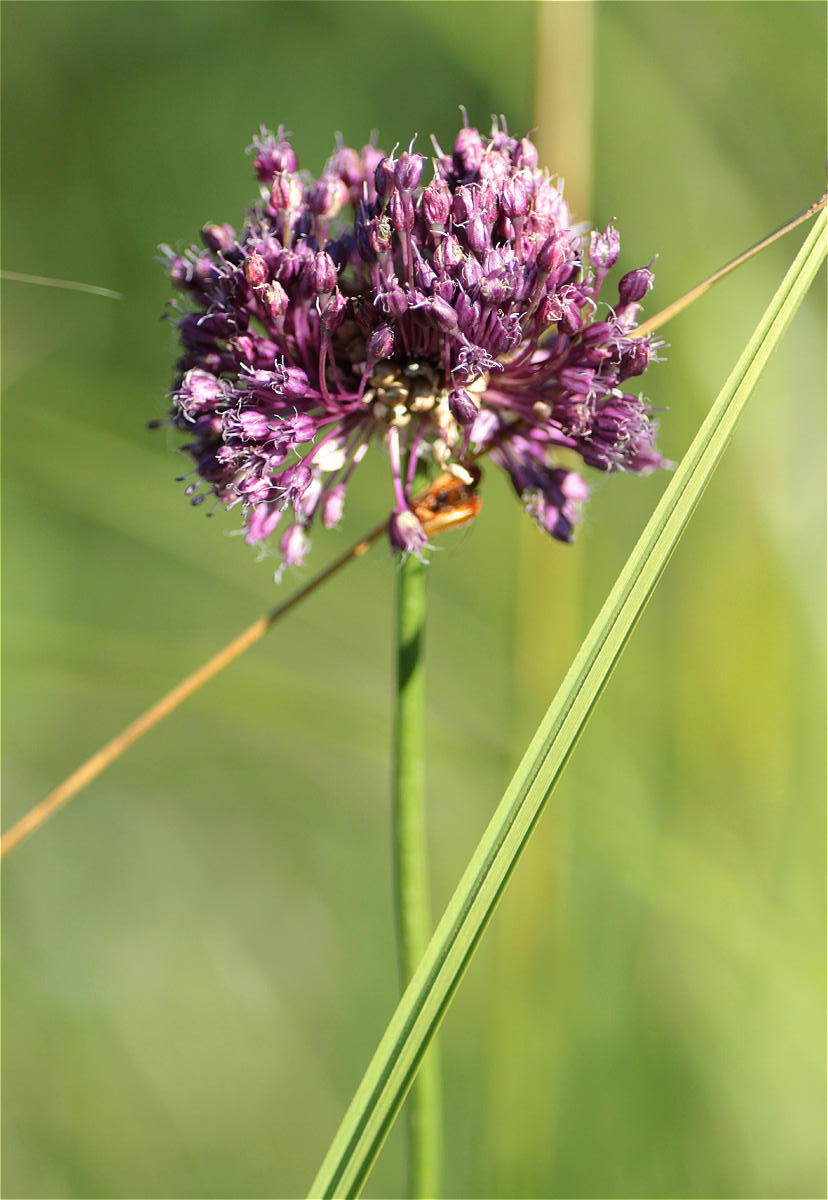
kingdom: Plantae
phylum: Tracheophyta
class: Liliopsida
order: Asparagales
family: Amaryllidaceae
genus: Allium
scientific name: Allium vineale
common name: Crow garlic
